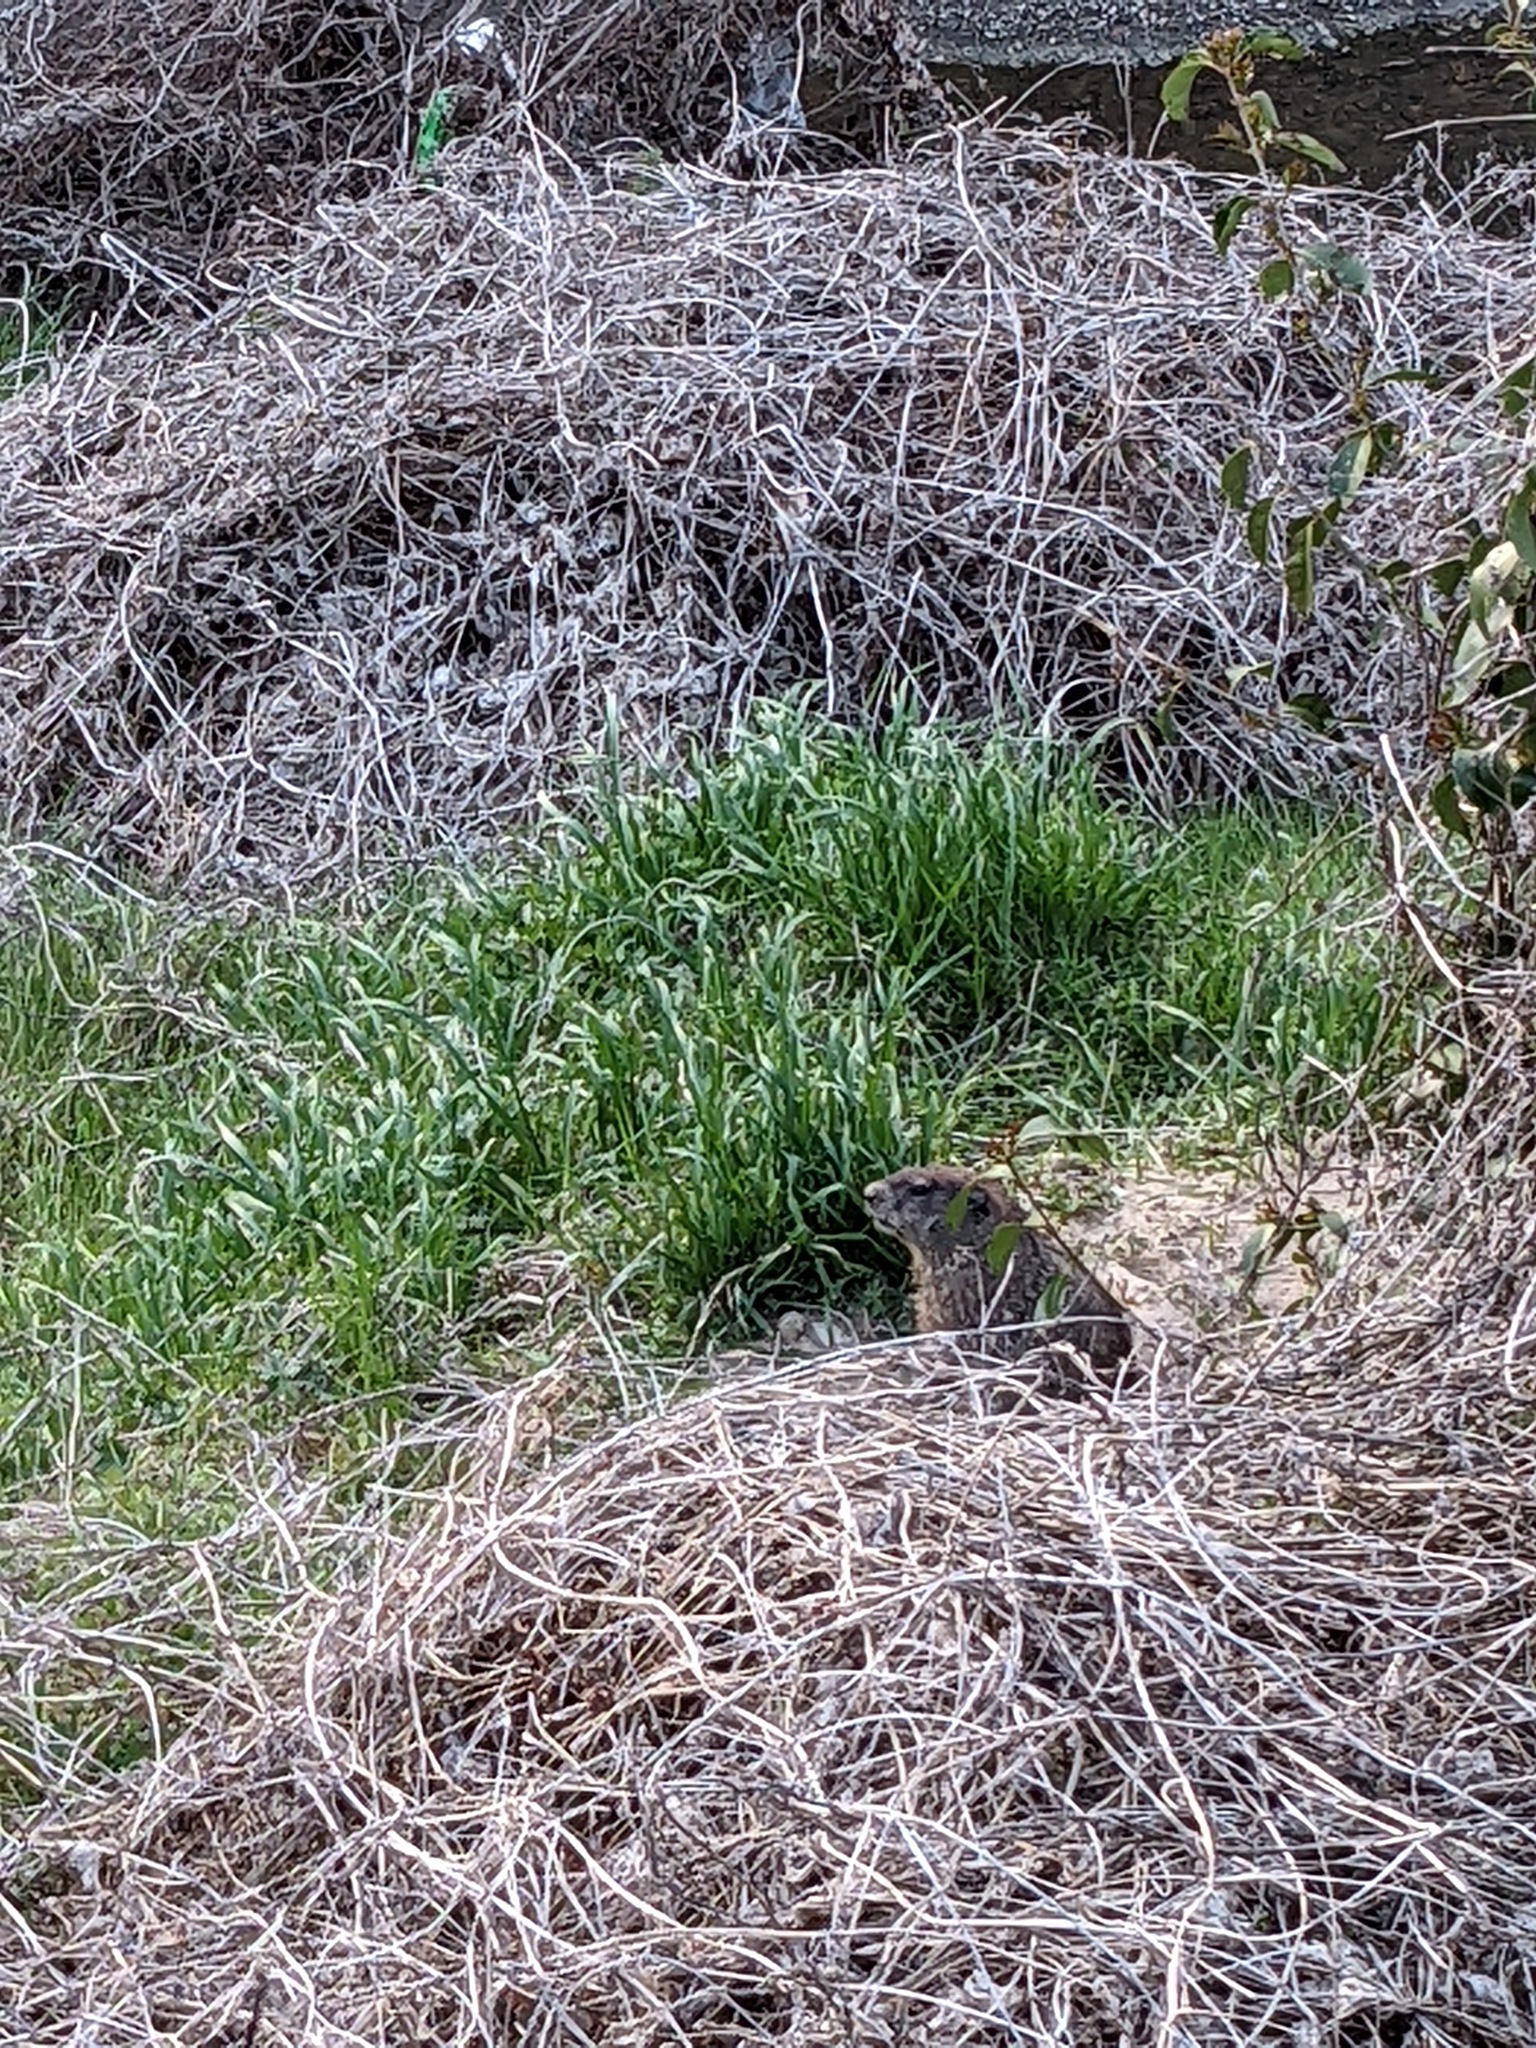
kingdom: Animalia
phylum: Chordata
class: Mammalia
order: Rodentia
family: Sciuridae
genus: Marmota
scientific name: Marmota monax
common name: Groundhog
